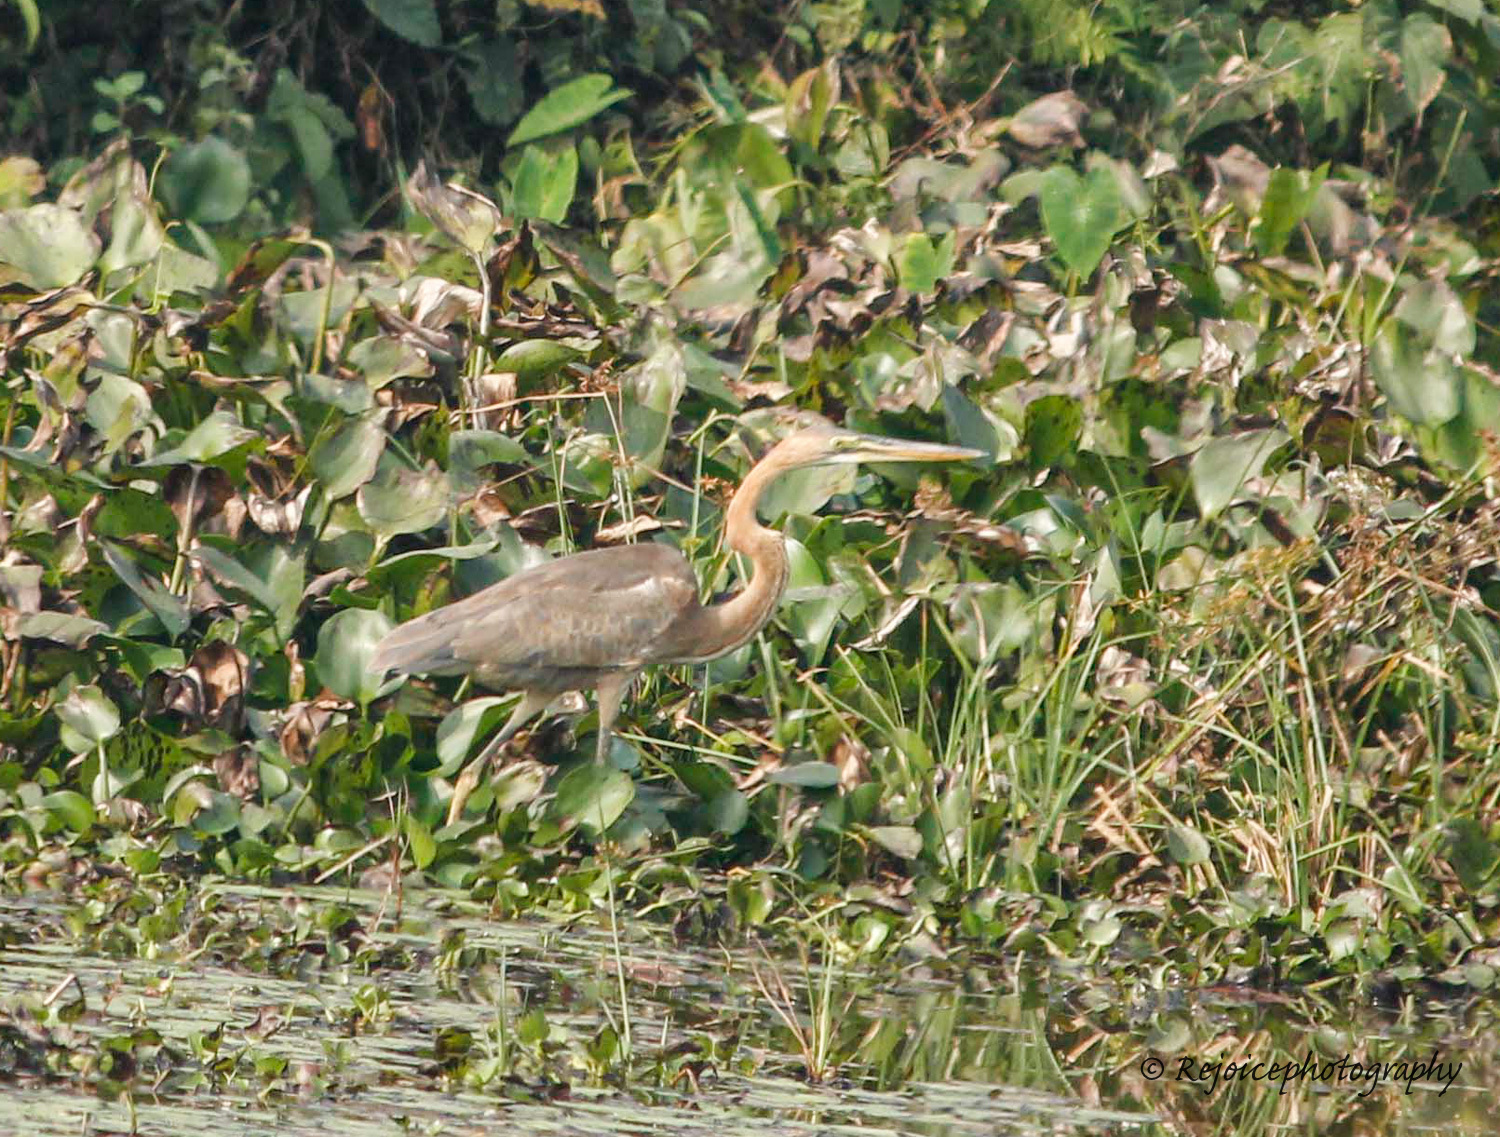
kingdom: Animalia
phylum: Chordata
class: Aves
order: Pelecaniformes
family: Ardeidae
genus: Ardea
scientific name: Ardea purpurea
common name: Purple heron
